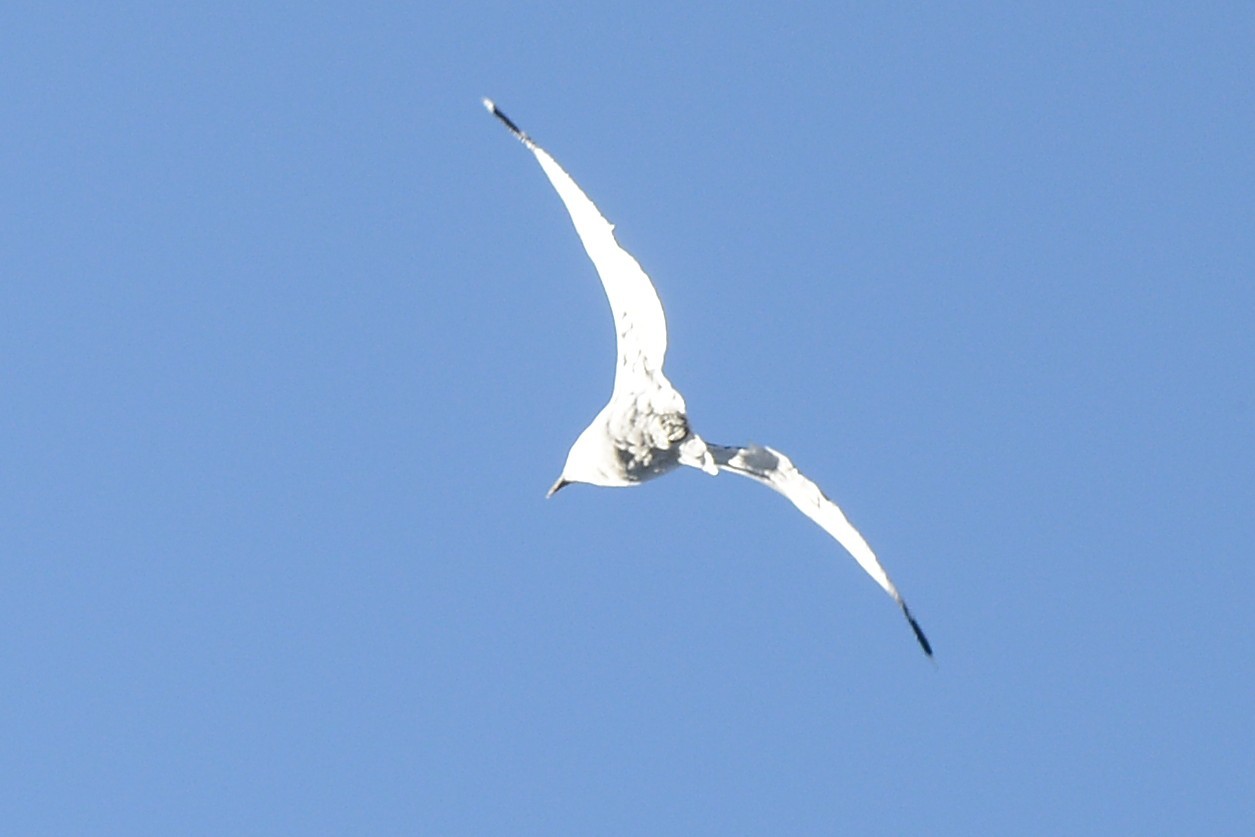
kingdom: Animalia
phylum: Chordata
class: Aves
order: Charadriiformes
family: Laridae
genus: Chroicocephalus
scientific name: Chroicocephalus novaehollandiae
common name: Silver gull
